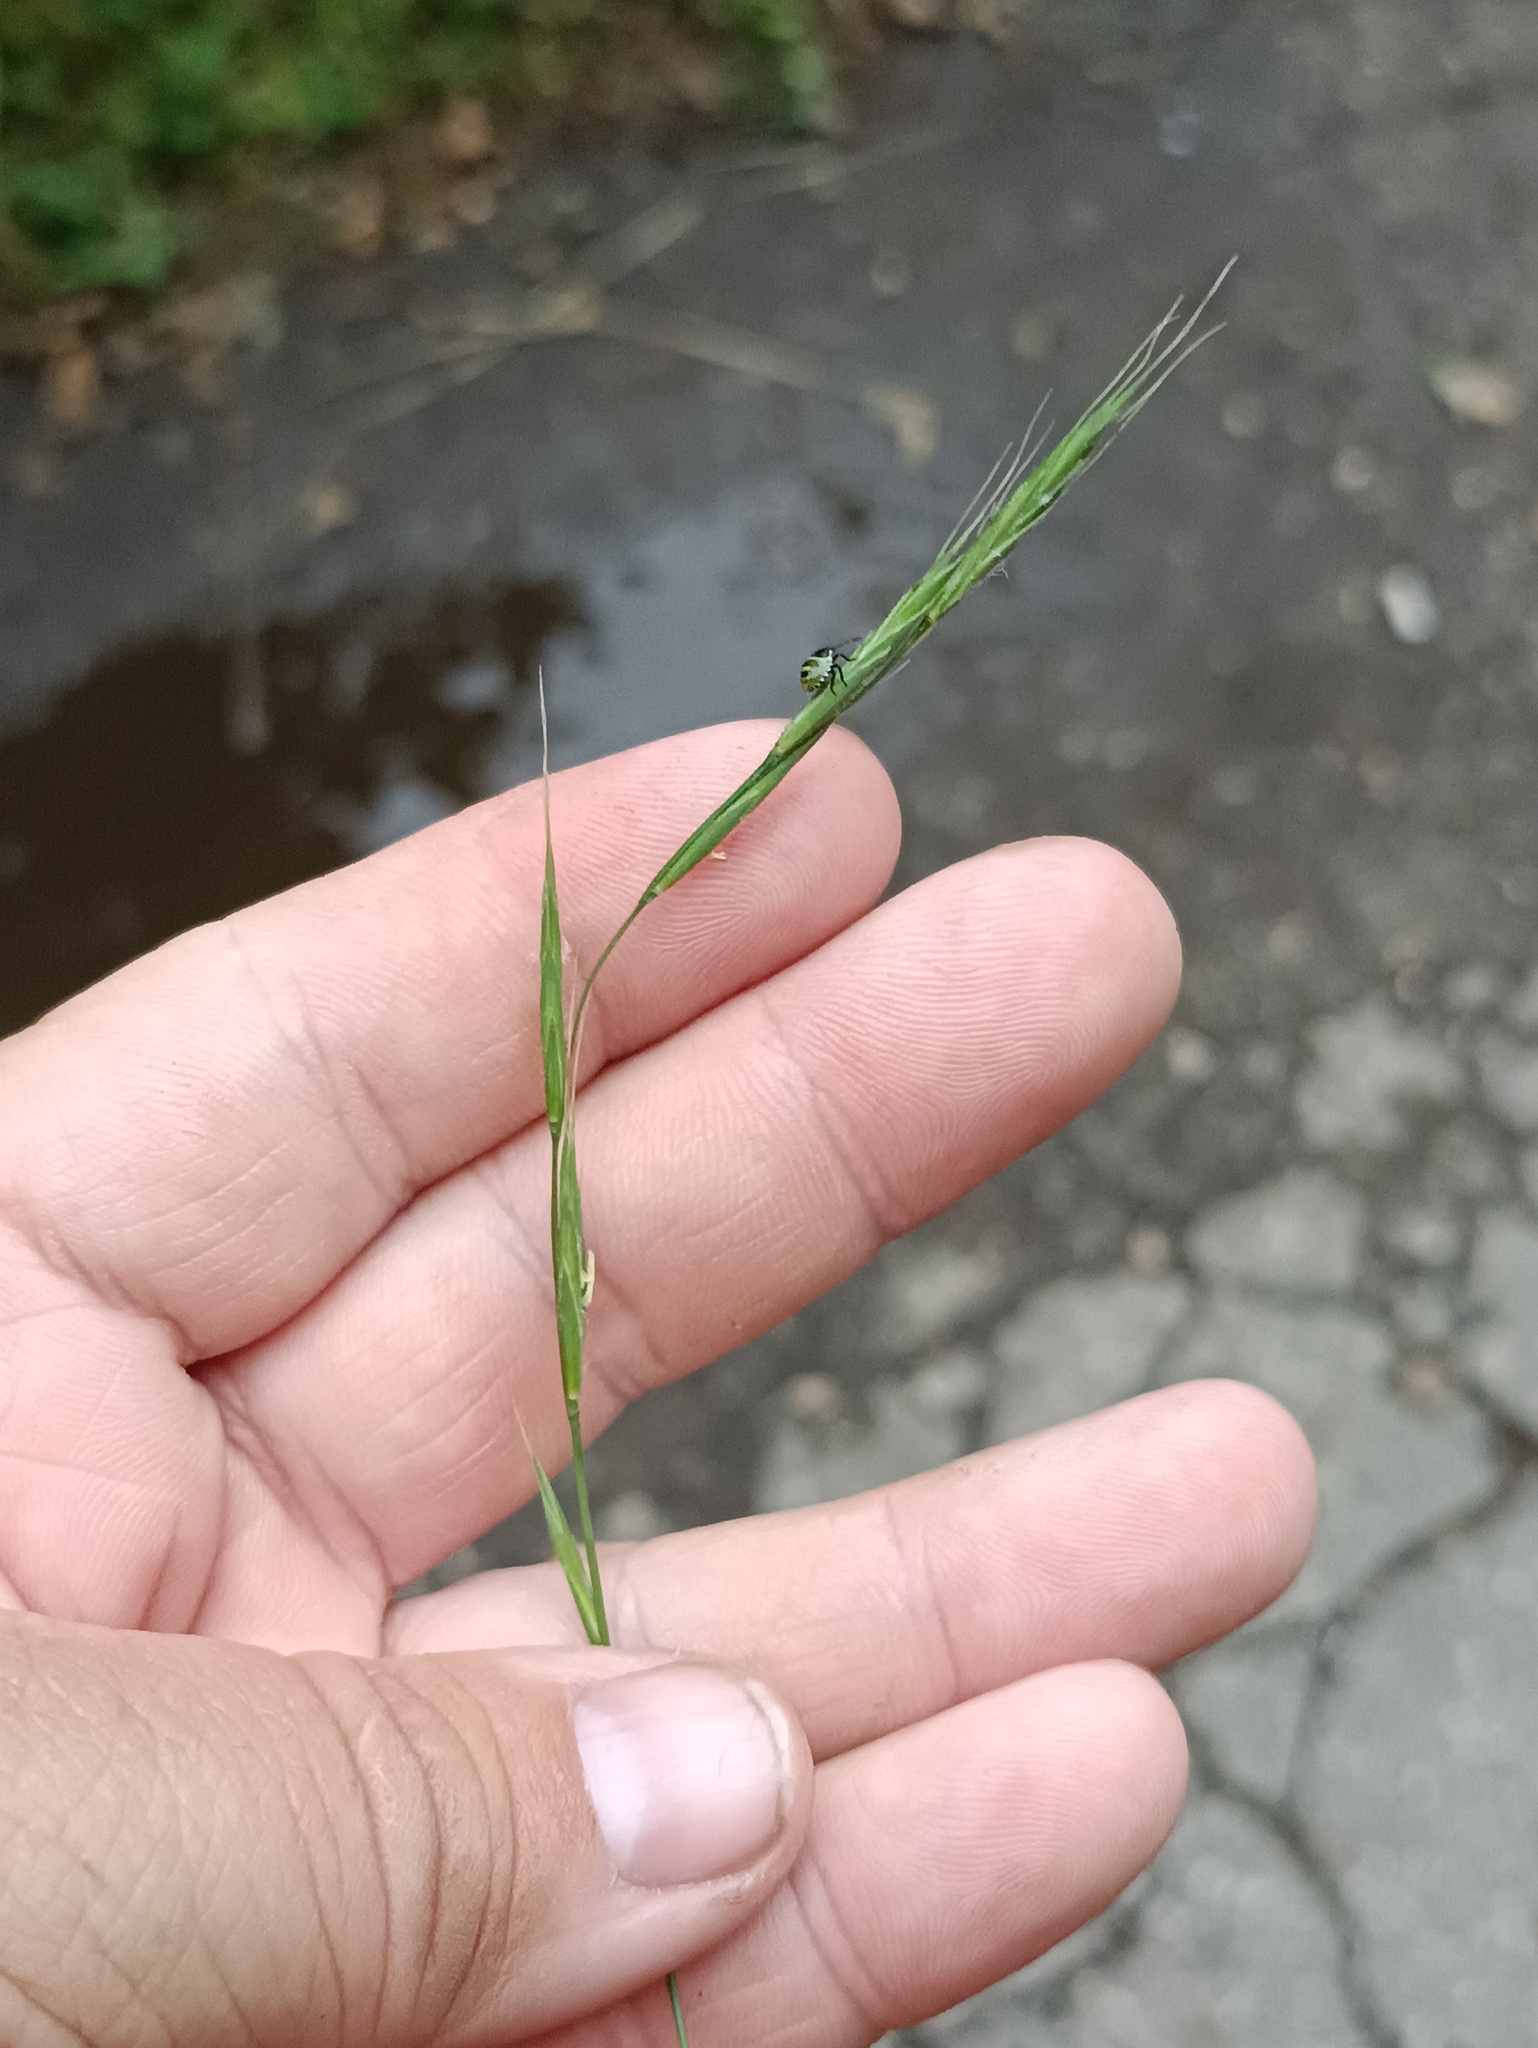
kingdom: Plantae
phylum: Tracheophyta
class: Liliopsida
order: Poales
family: Poaceae
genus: Brachypodium
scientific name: Brachypodium sylvaticum
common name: False-brome
